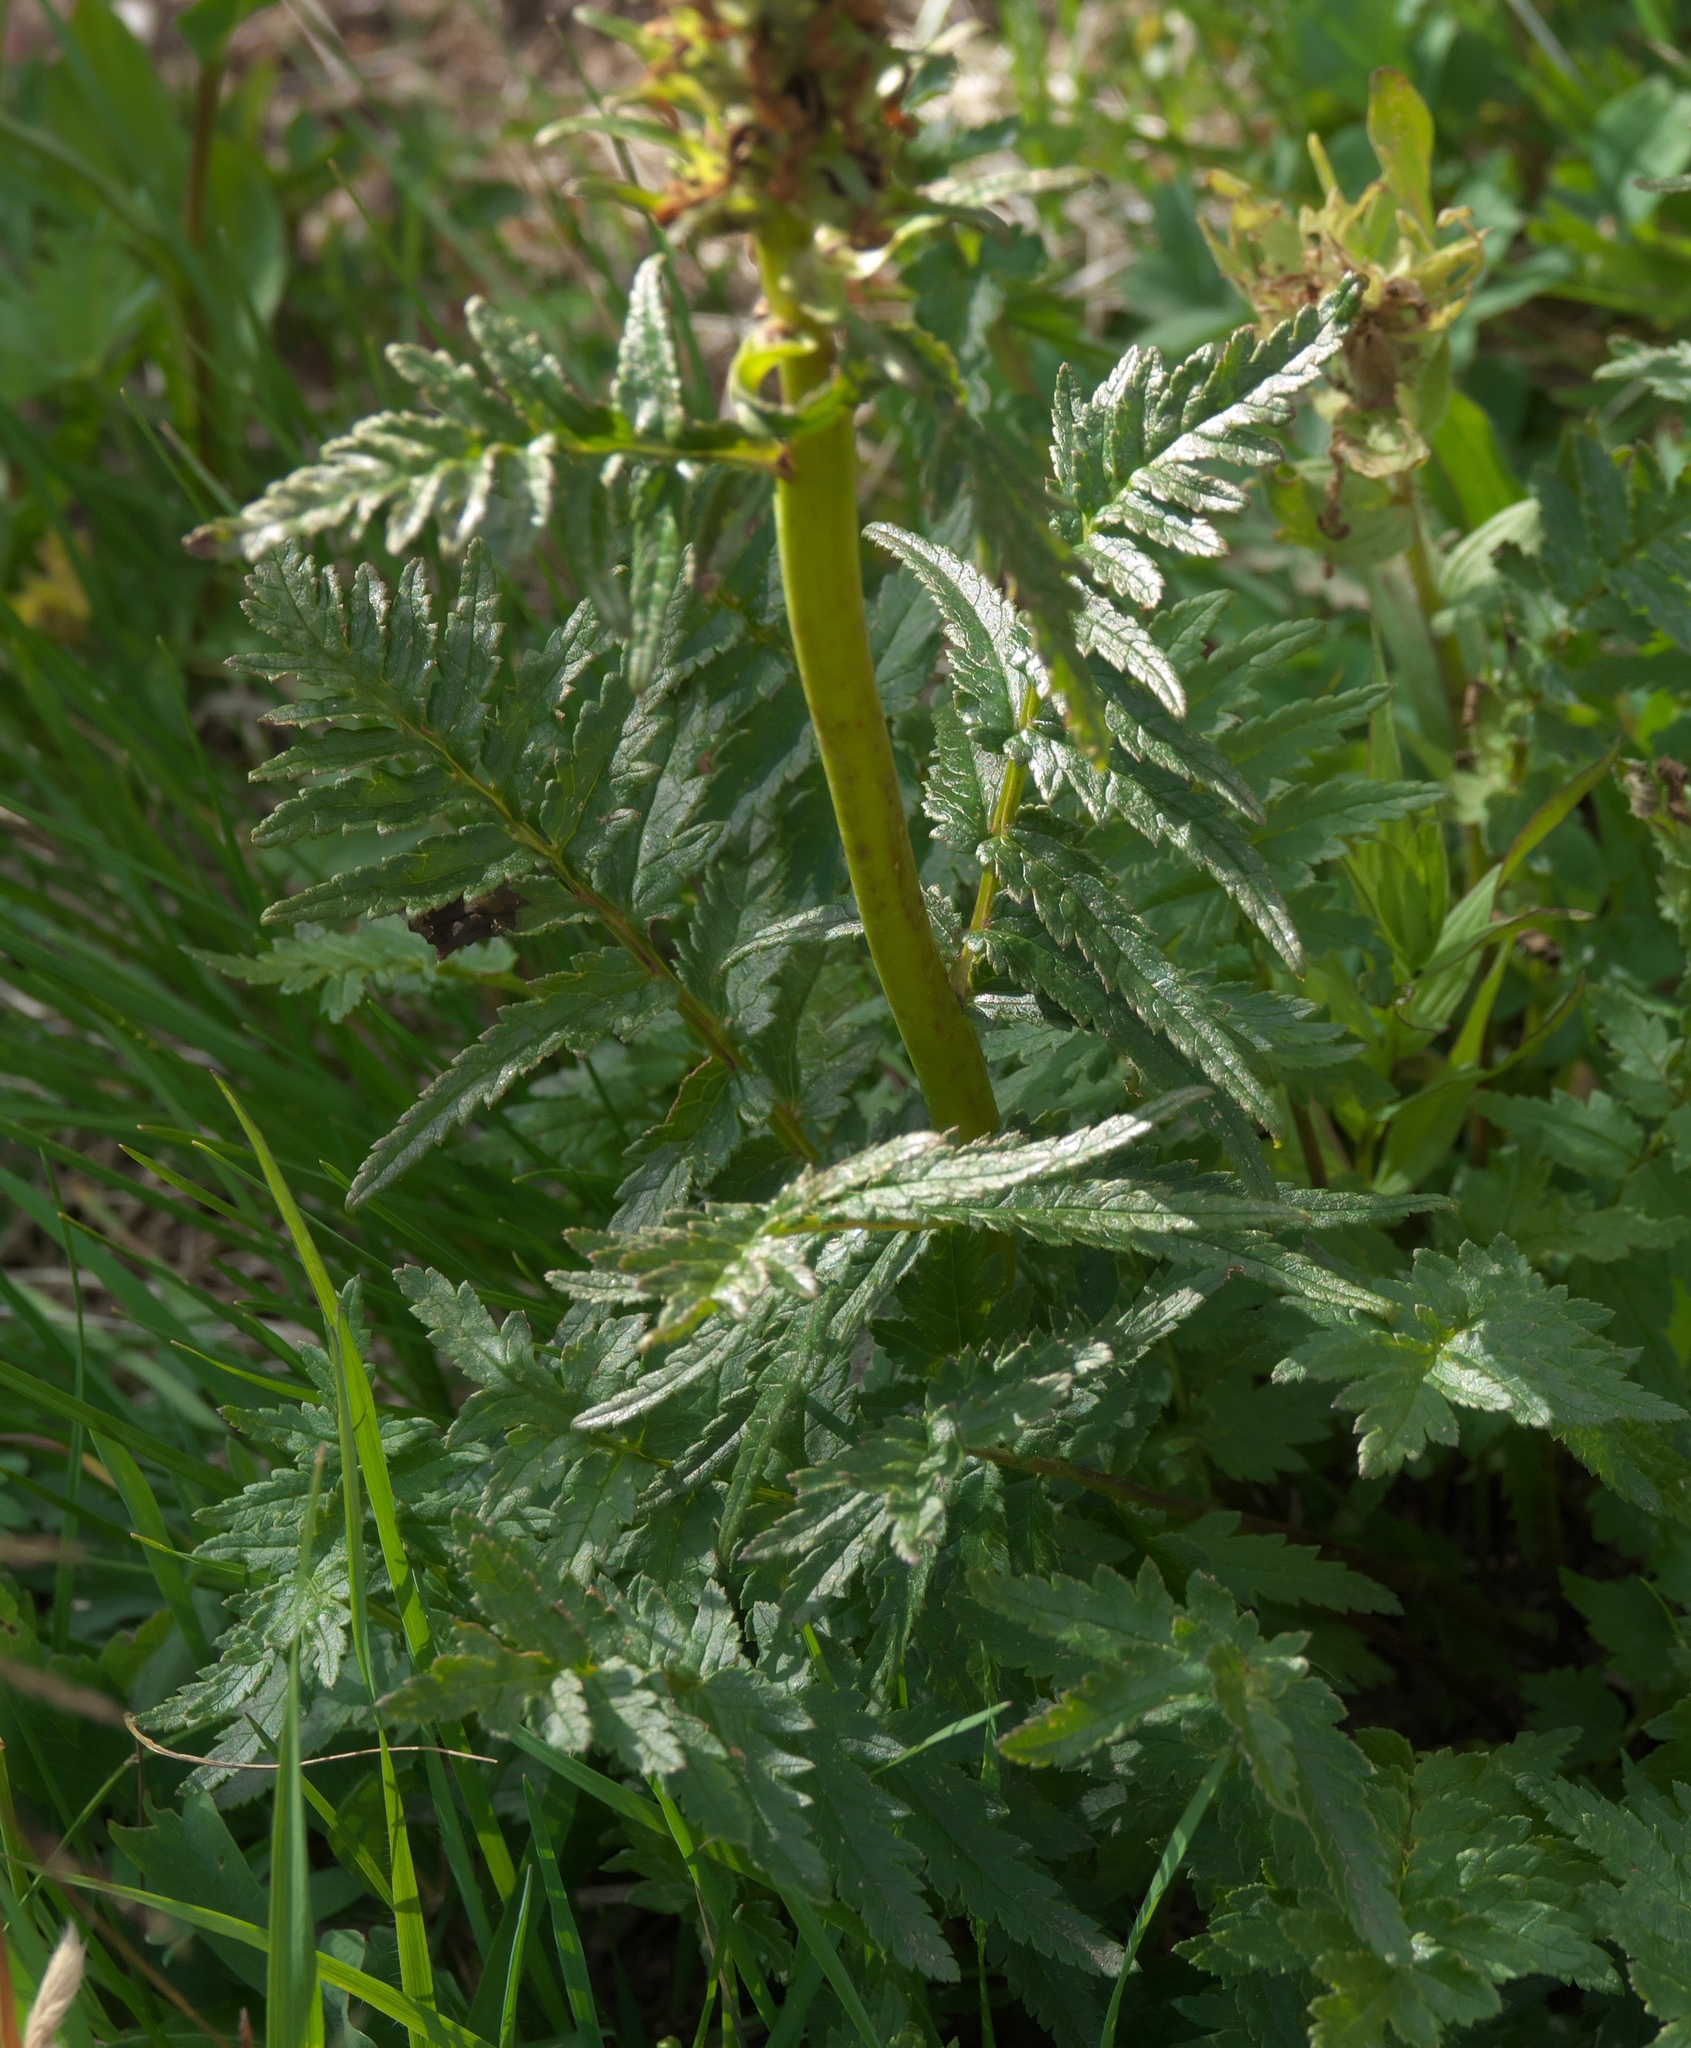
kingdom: Plantae
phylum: Tracheophyta
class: Magnoliopsida
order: Lamiales
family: Orobanchaceae
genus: Pedicularis
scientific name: Pedicularis bracteosa
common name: Bracted lousewort
